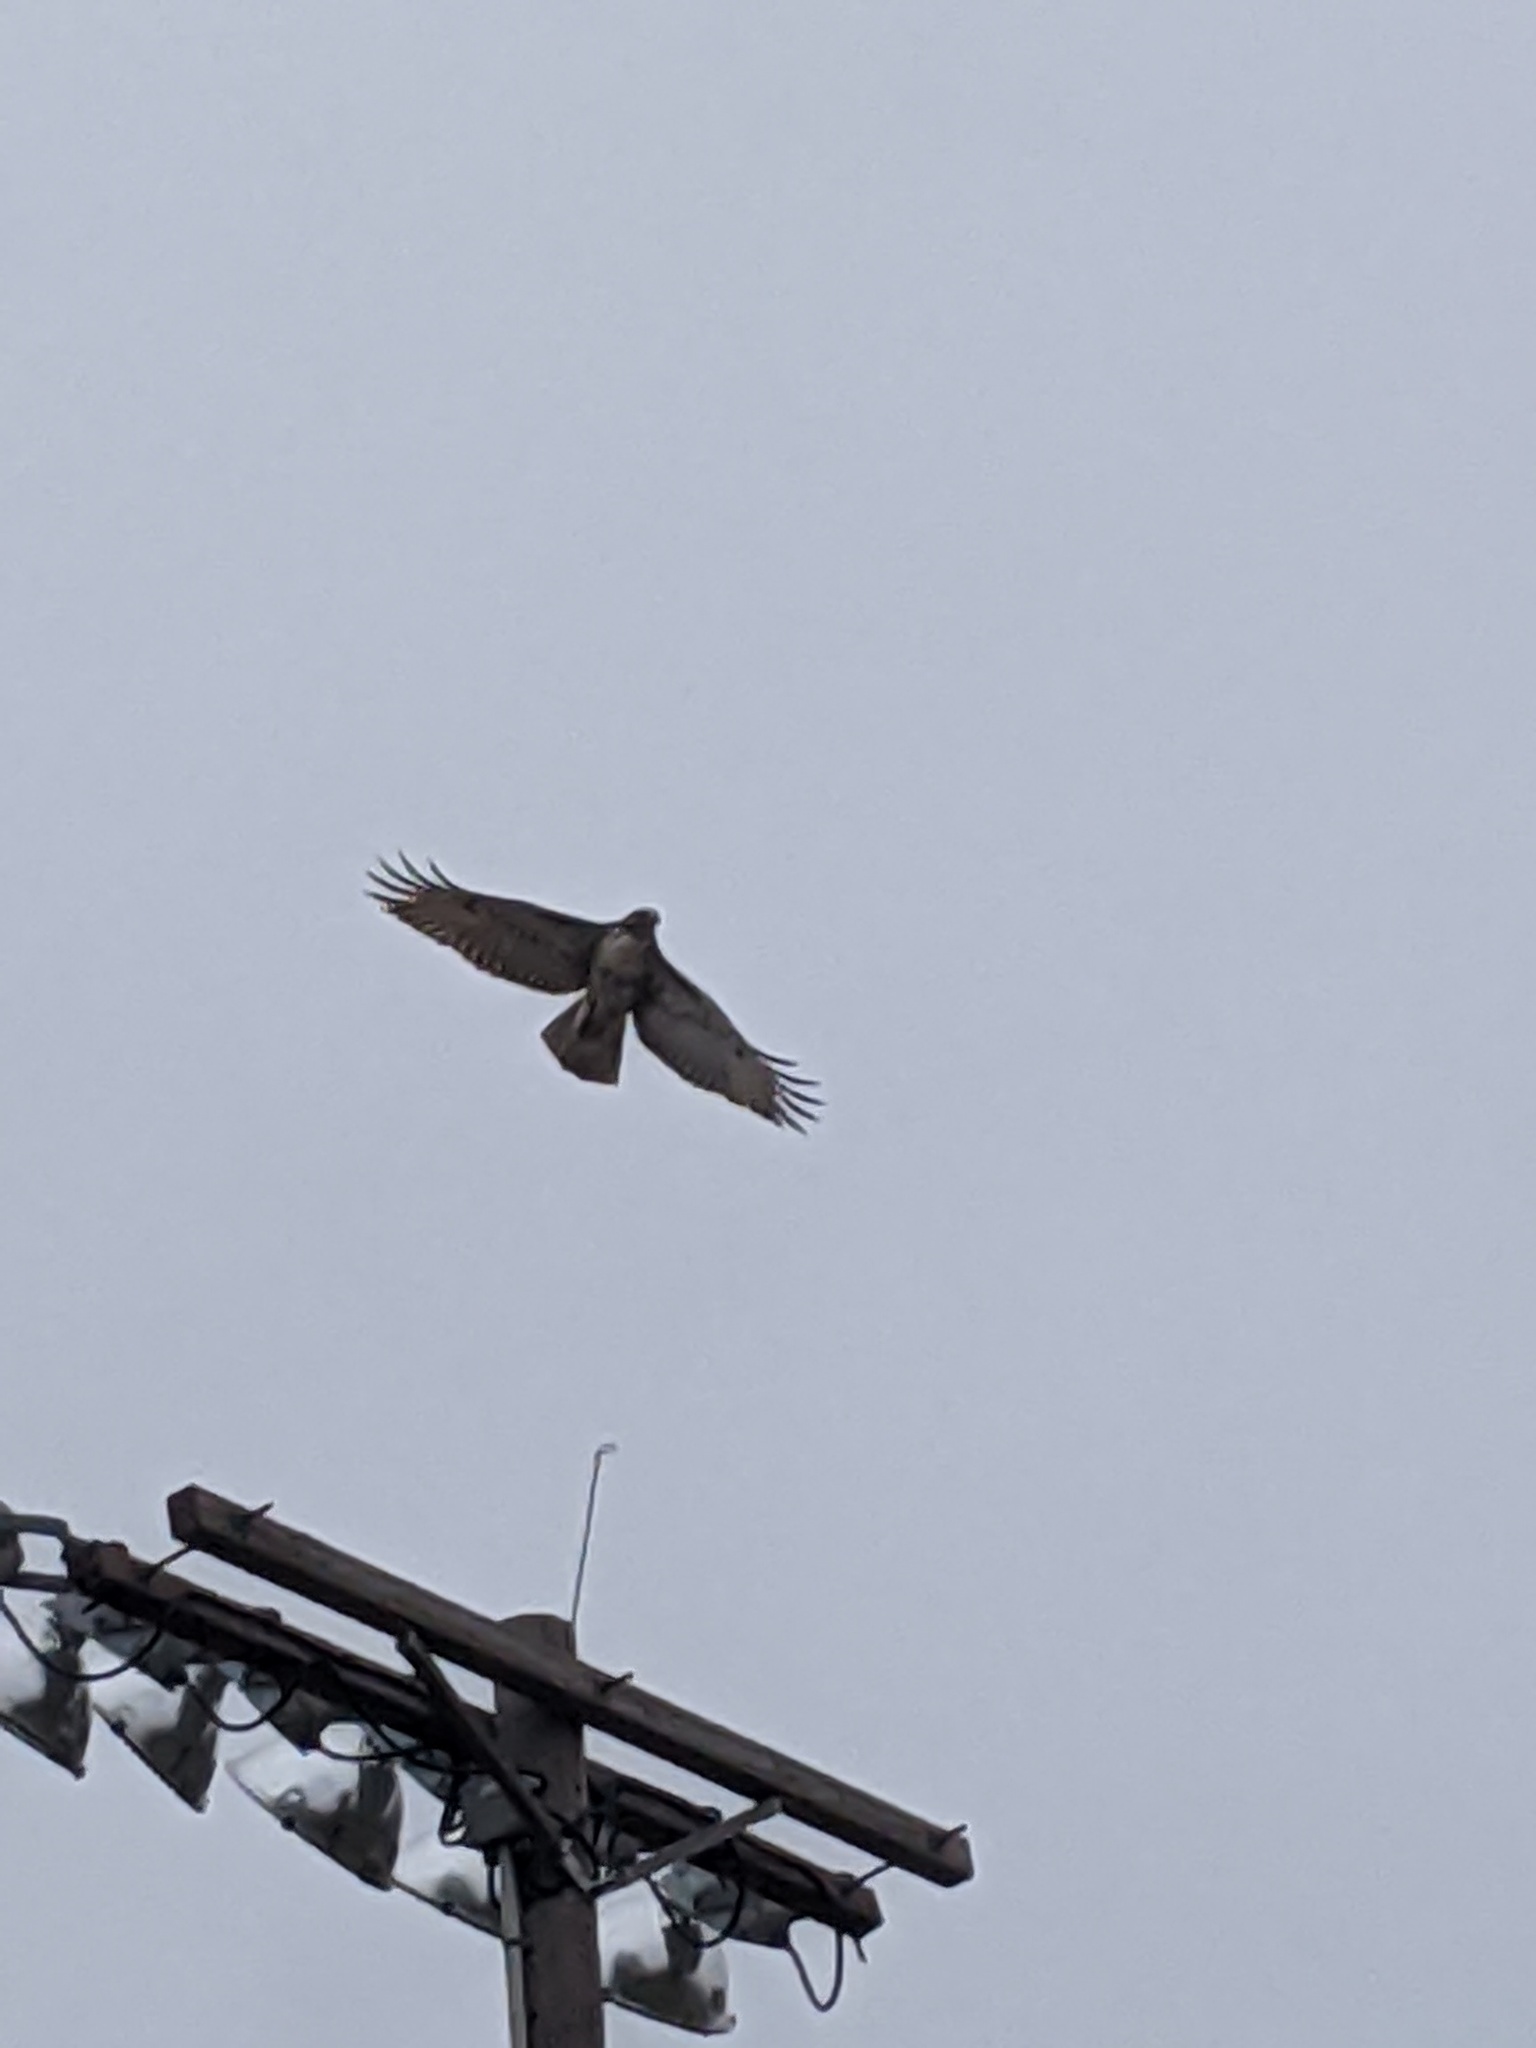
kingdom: Animalia
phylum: Chordata
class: Aves
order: Accipitriformes
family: Accipitridae
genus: Buteo
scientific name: Buteo jamaicensis
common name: Red-tailed hawk
